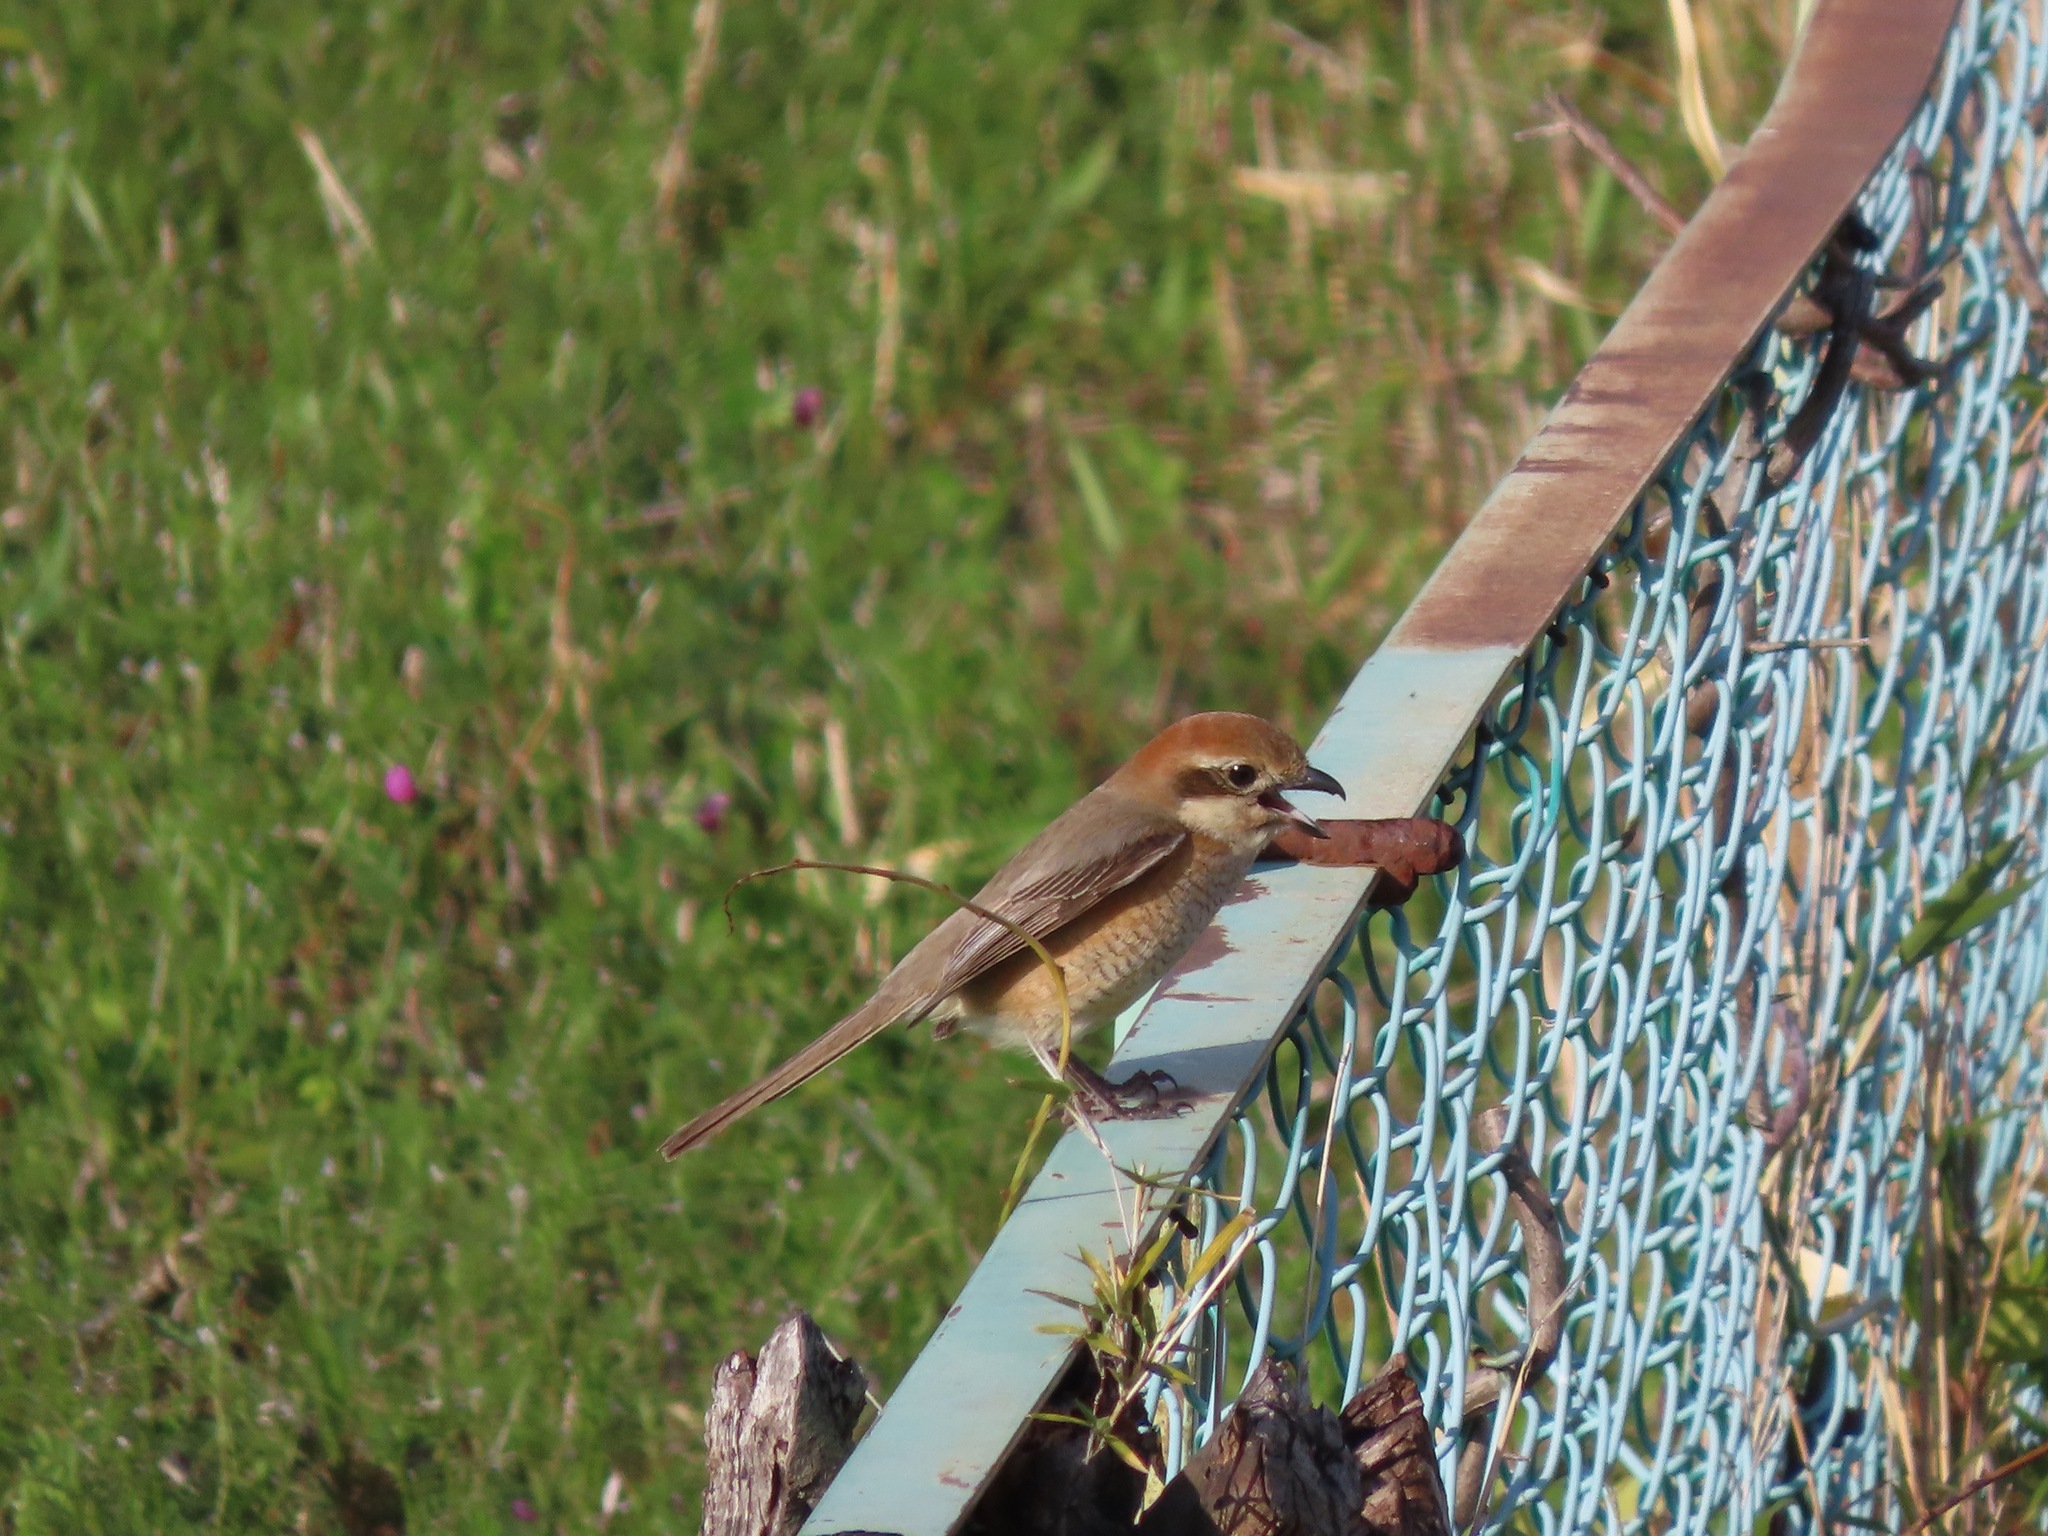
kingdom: Animalia
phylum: Chordata
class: Aves
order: Passeriformes
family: Laniidae
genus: Lanius
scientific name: Lanius bucephalus
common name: Bull-headed shrike
